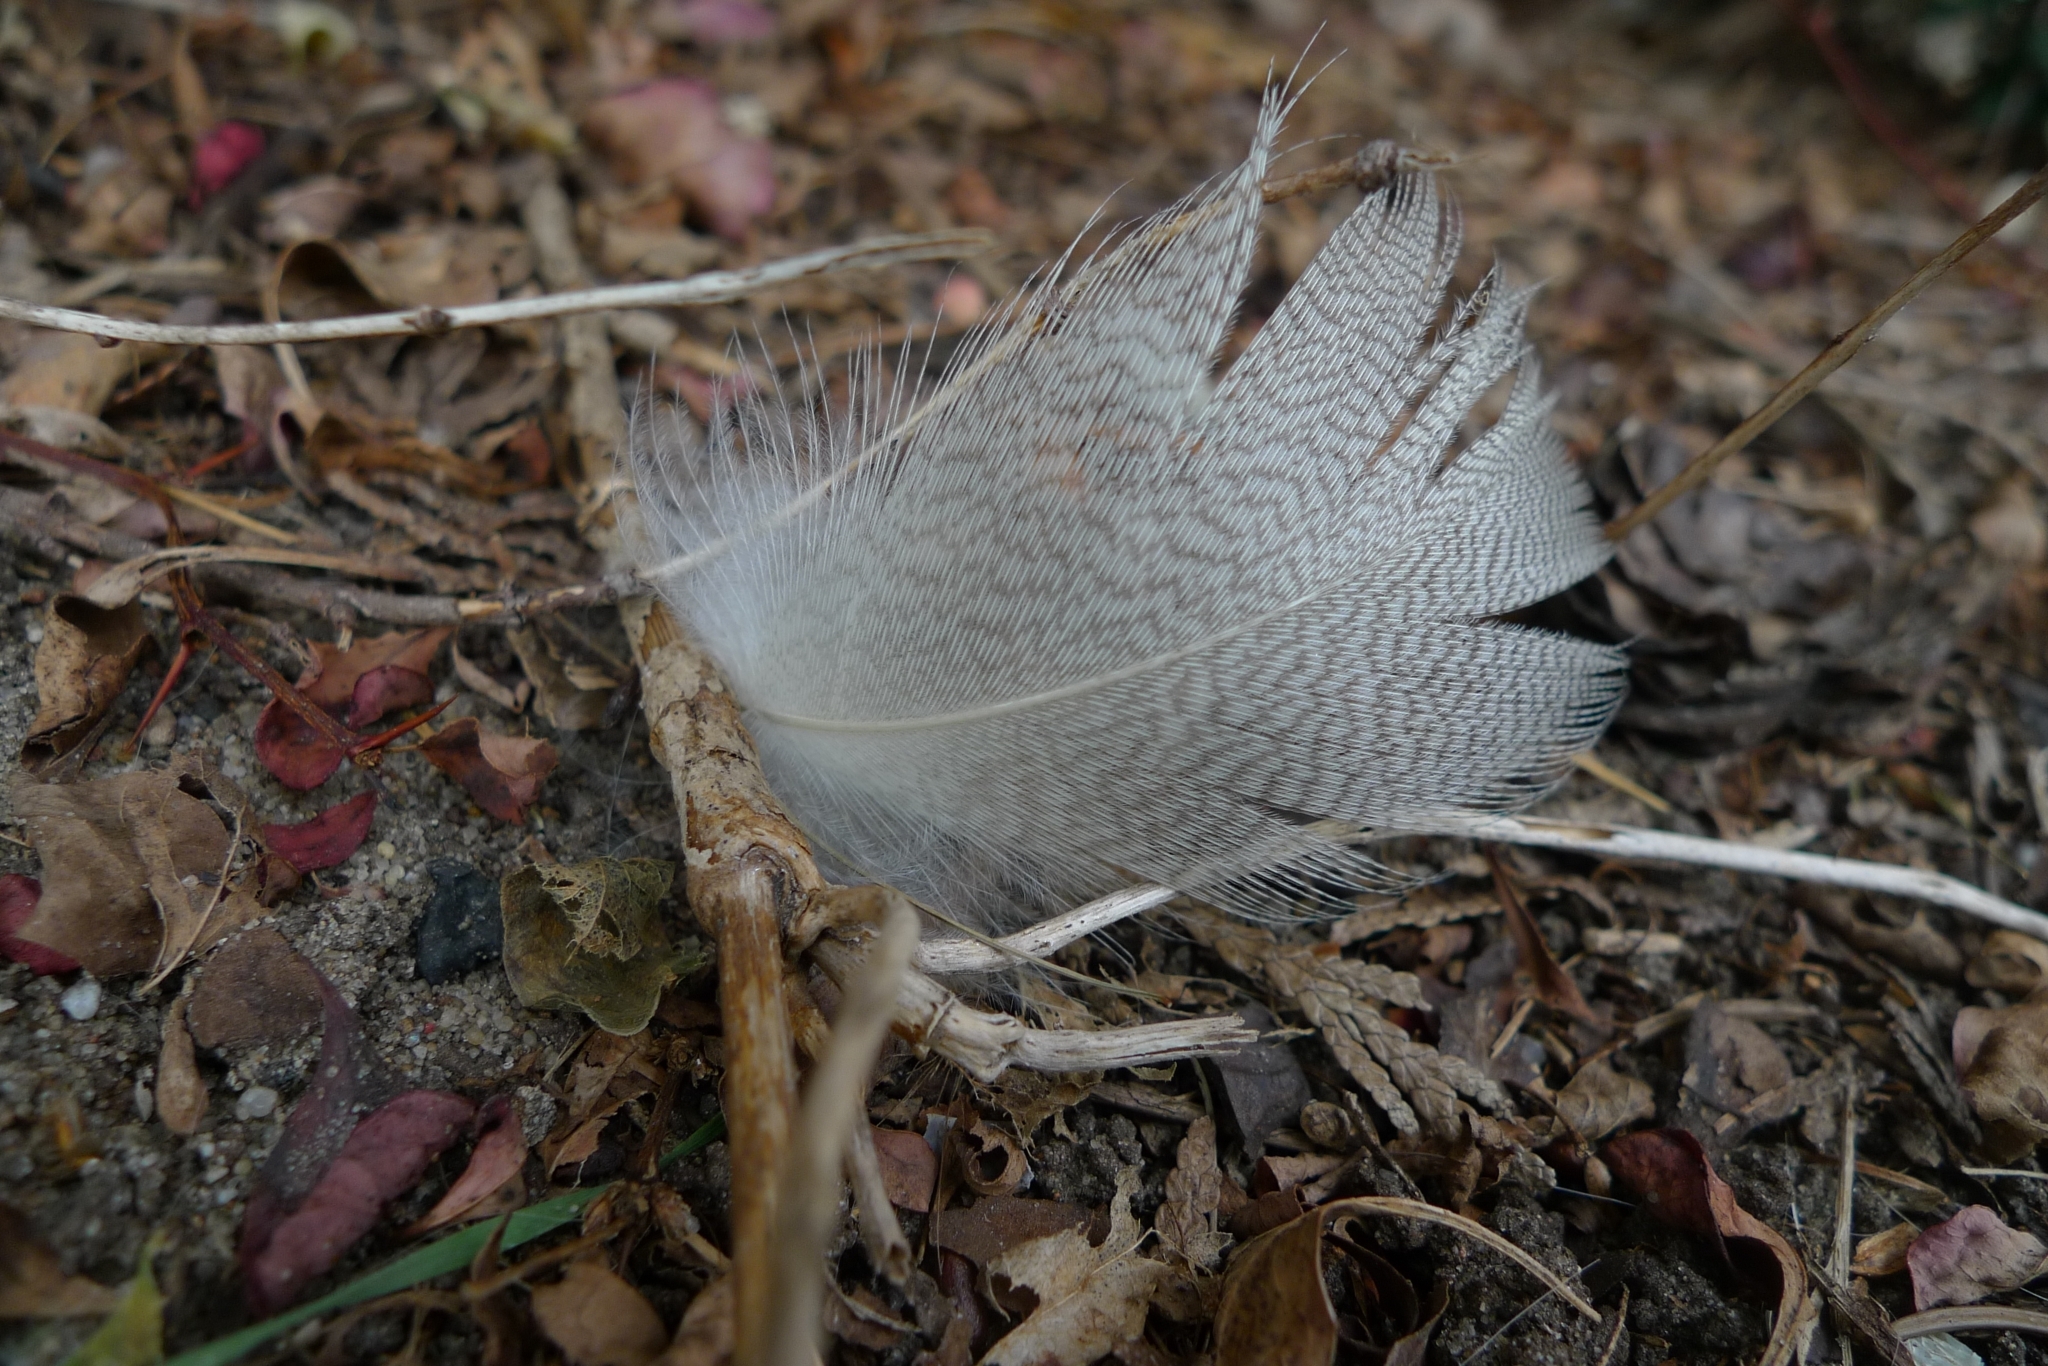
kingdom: Animalia
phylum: Chordata
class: Aves
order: Anseriformes
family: Anatidae
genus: Anas
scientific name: Anas platyrhynchos
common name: Mallard
